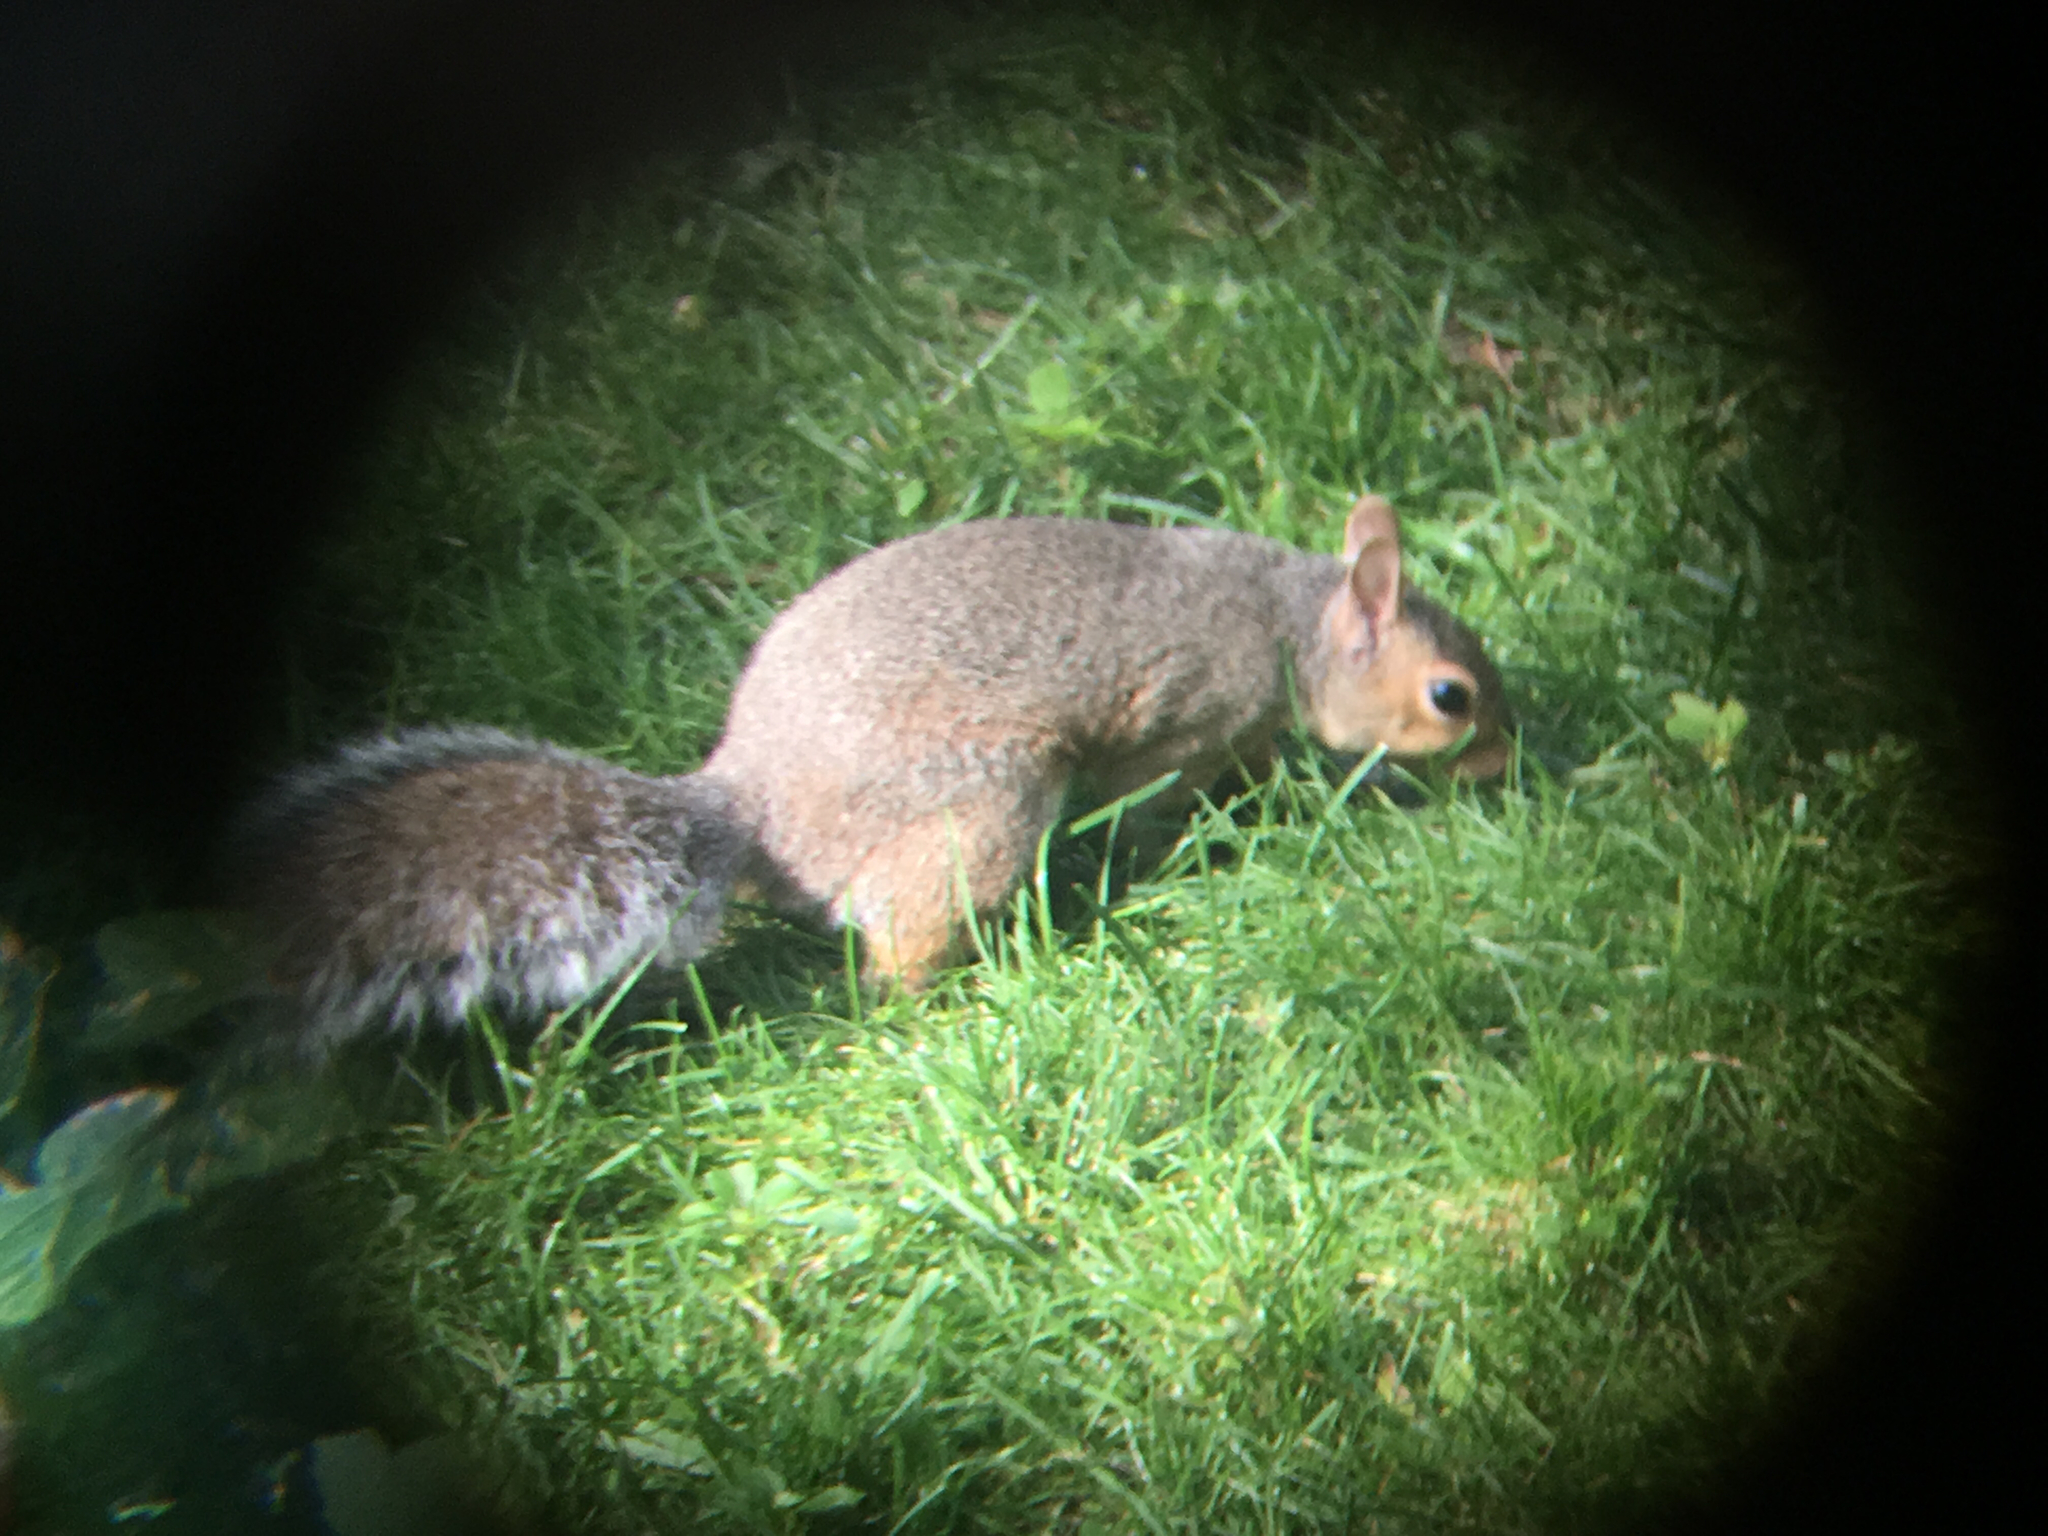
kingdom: Animalia
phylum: Chordata
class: Mammalia
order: Rodentia
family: Sciuridae
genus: Sciurus
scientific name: Sciurus carolinensis
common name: Eastern gray squirrel
